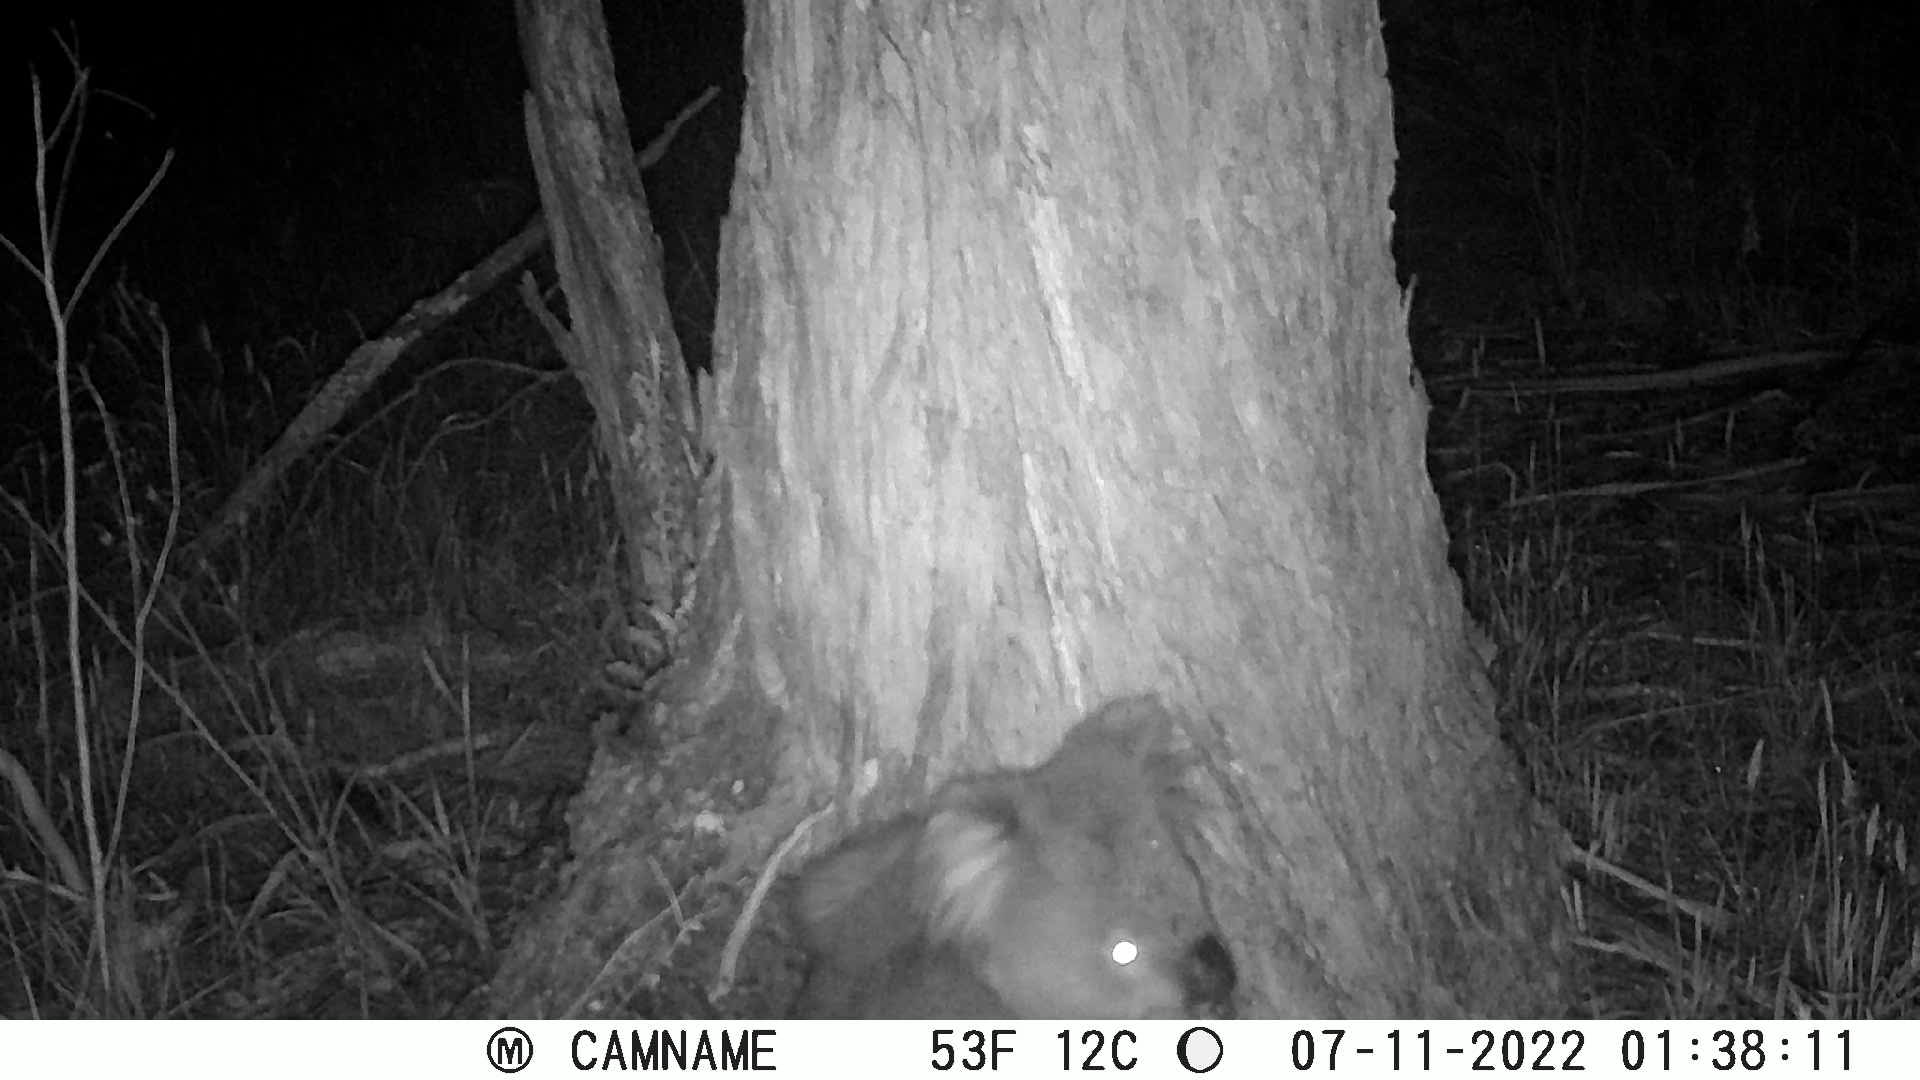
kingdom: Animalia
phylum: Chordata
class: Mammalia
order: Diprotodontia
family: Phascolarctidae
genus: Phascolarctos
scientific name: Phascolarctos cinereus
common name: Koala
